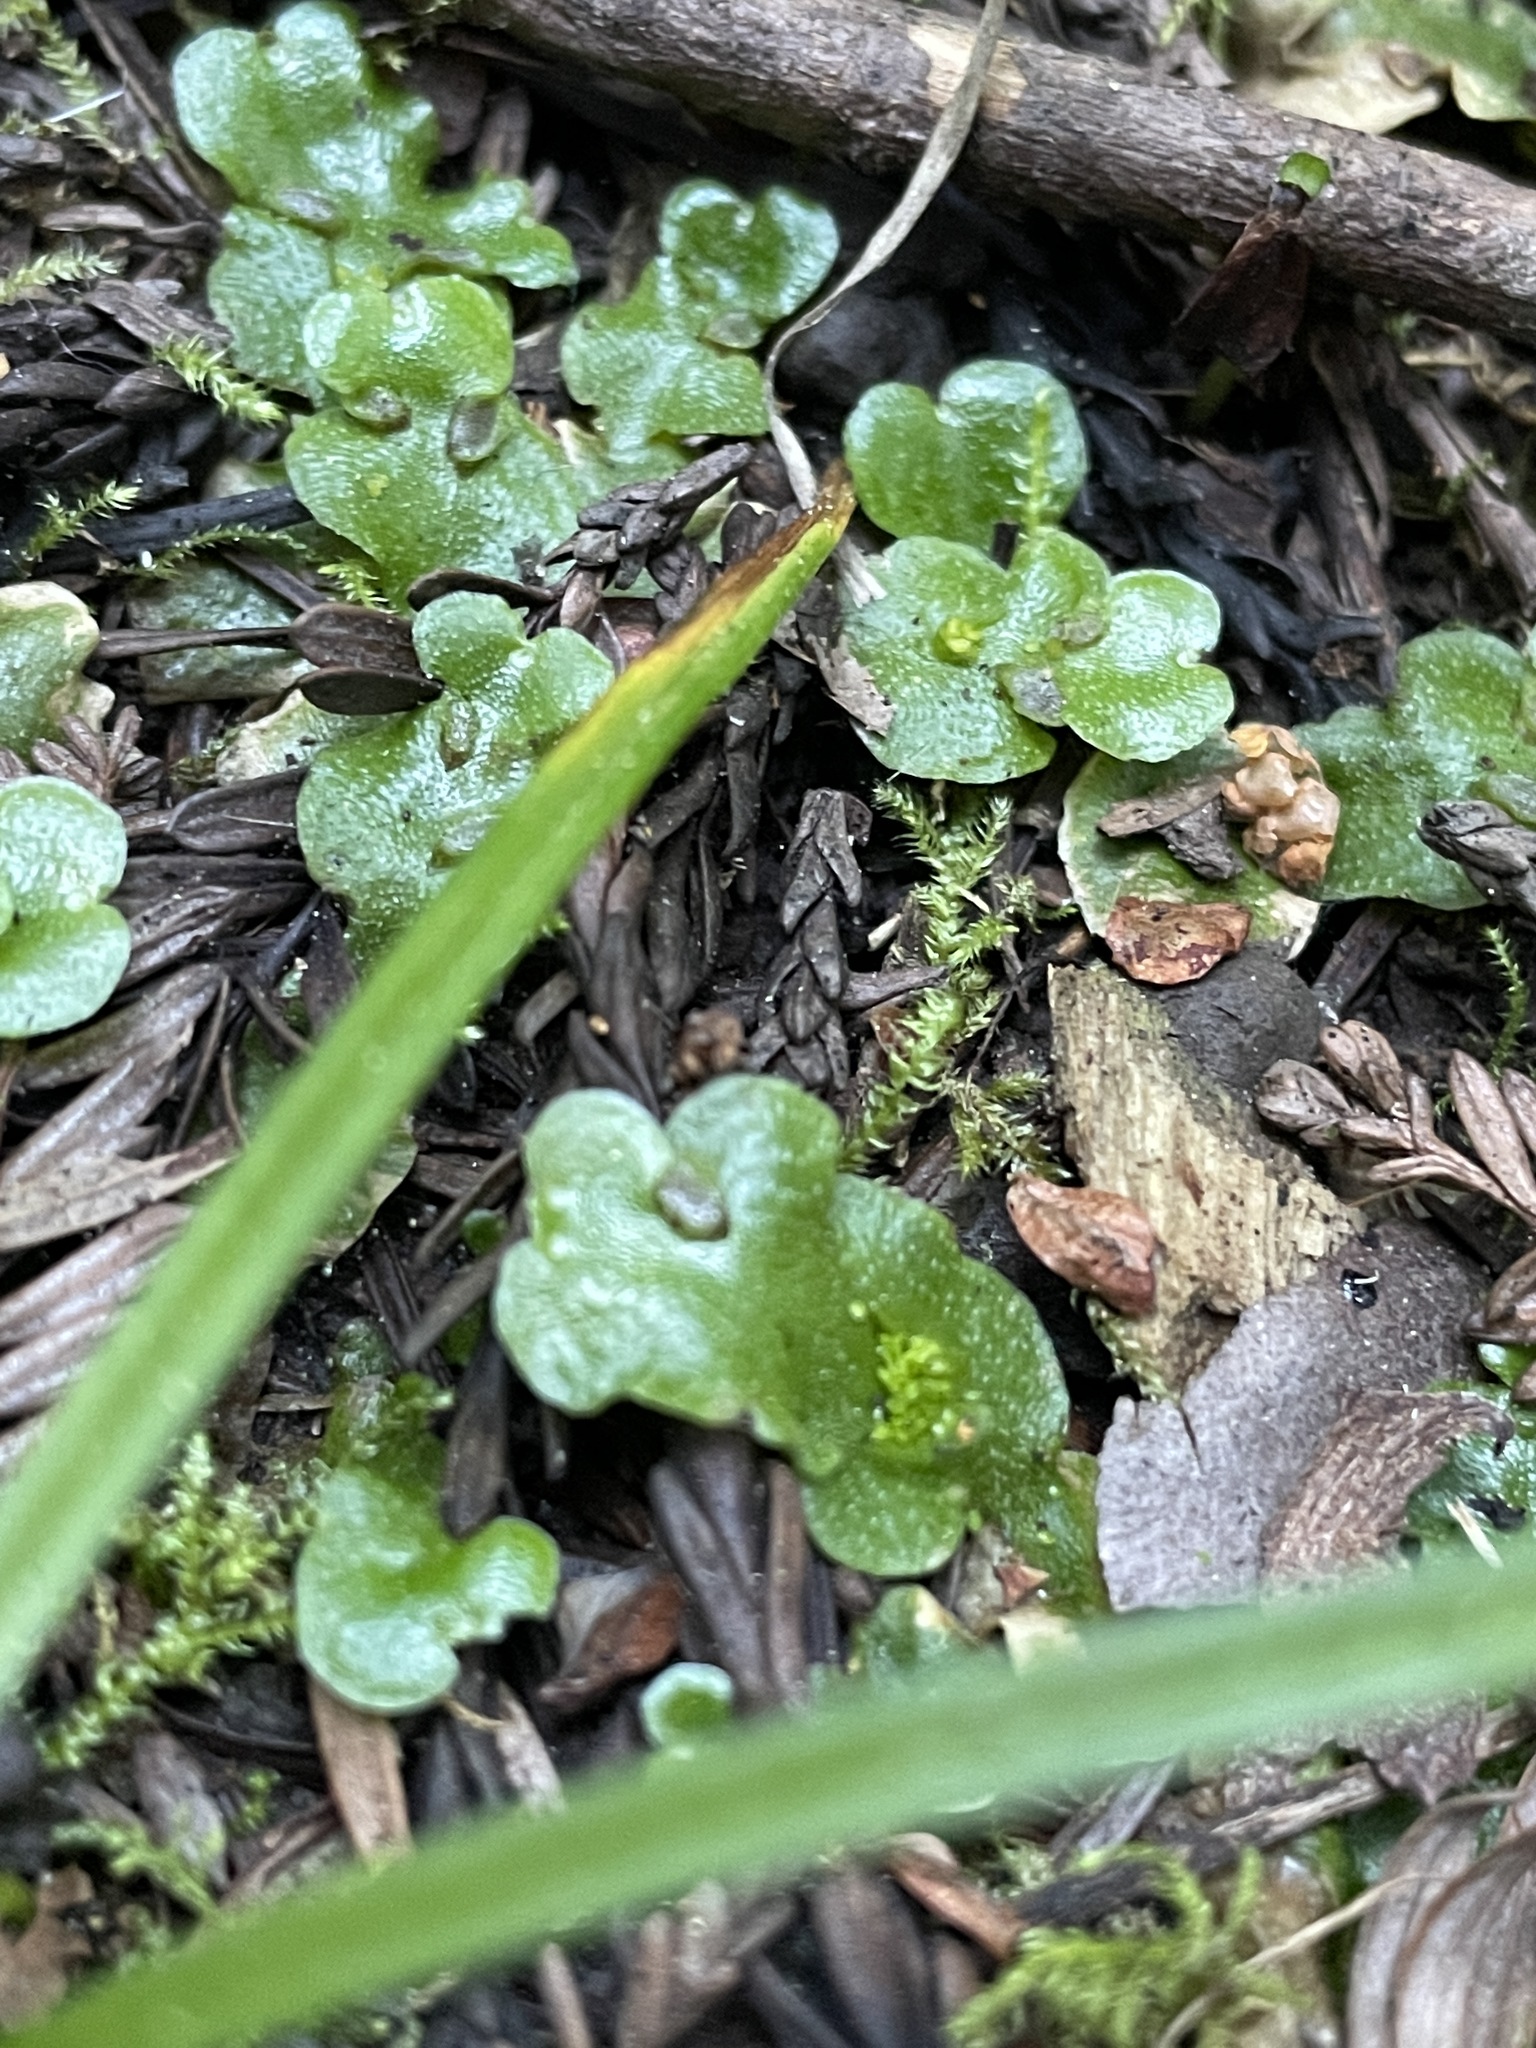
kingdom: Plantae
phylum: Marchantiophyta
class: Marchantiopsida
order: Lunulariales
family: Lunulariaceae
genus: Lunularia
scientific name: Lunularia cruciata
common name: Crescent-cup liverwort
